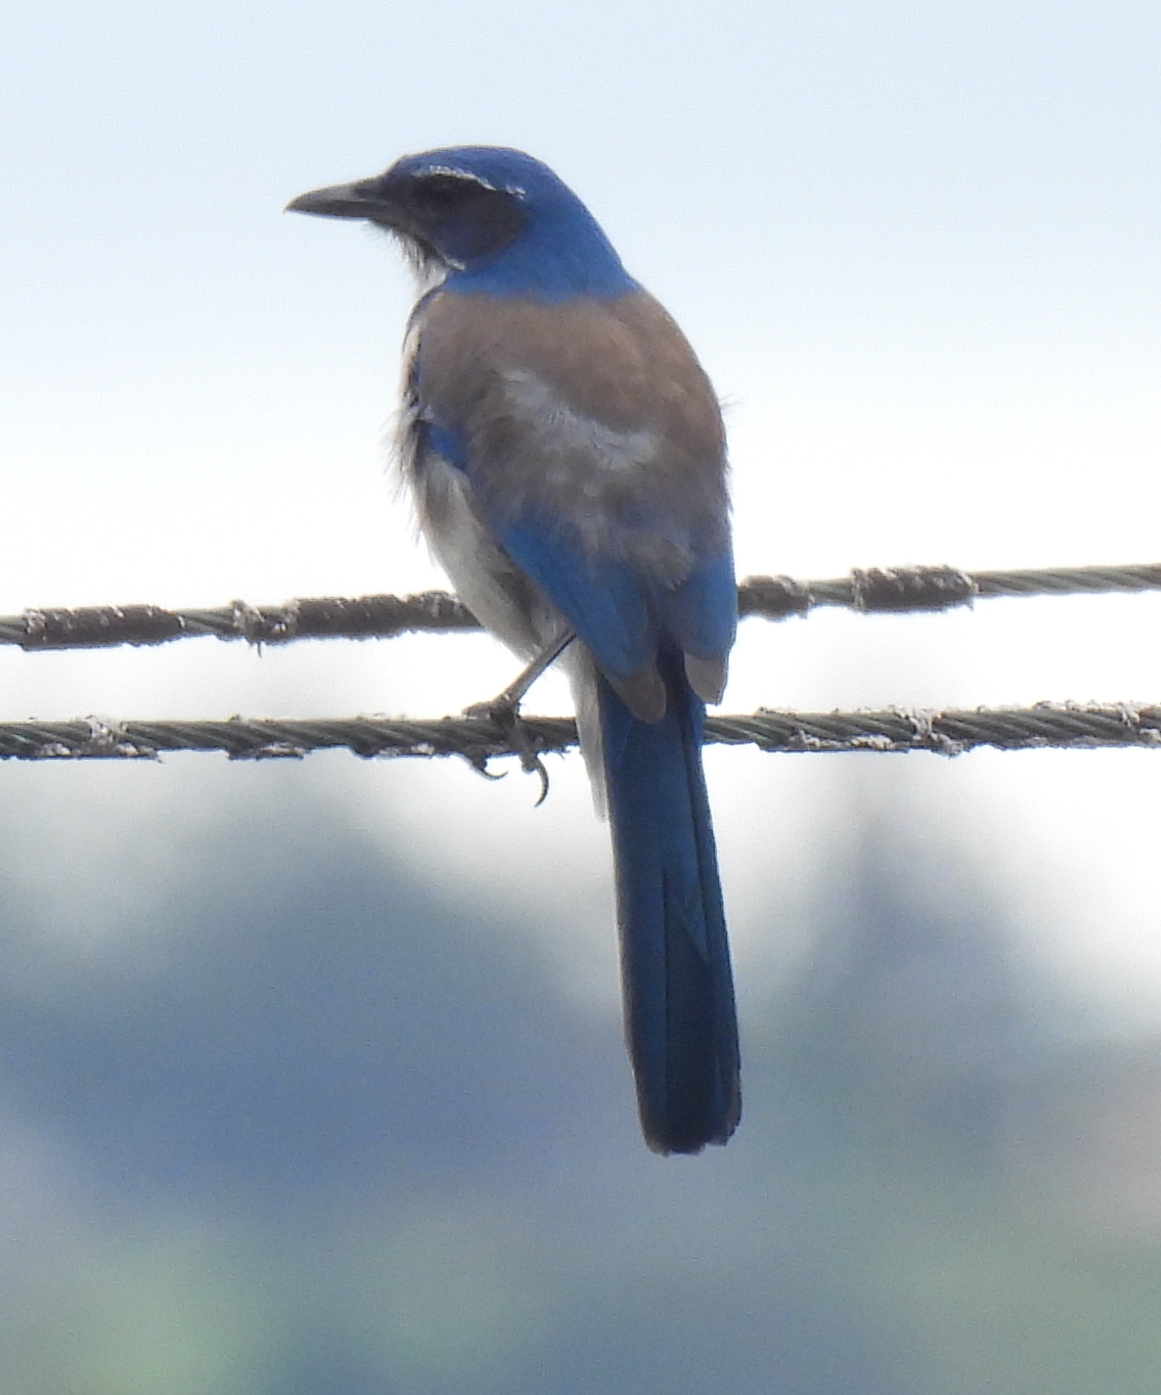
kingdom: Animalia
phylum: Chordata
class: Aves
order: Passeriformes
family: Corvidae
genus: Aphelocoma
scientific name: Aphelocoma californica
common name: California scrub-jay
